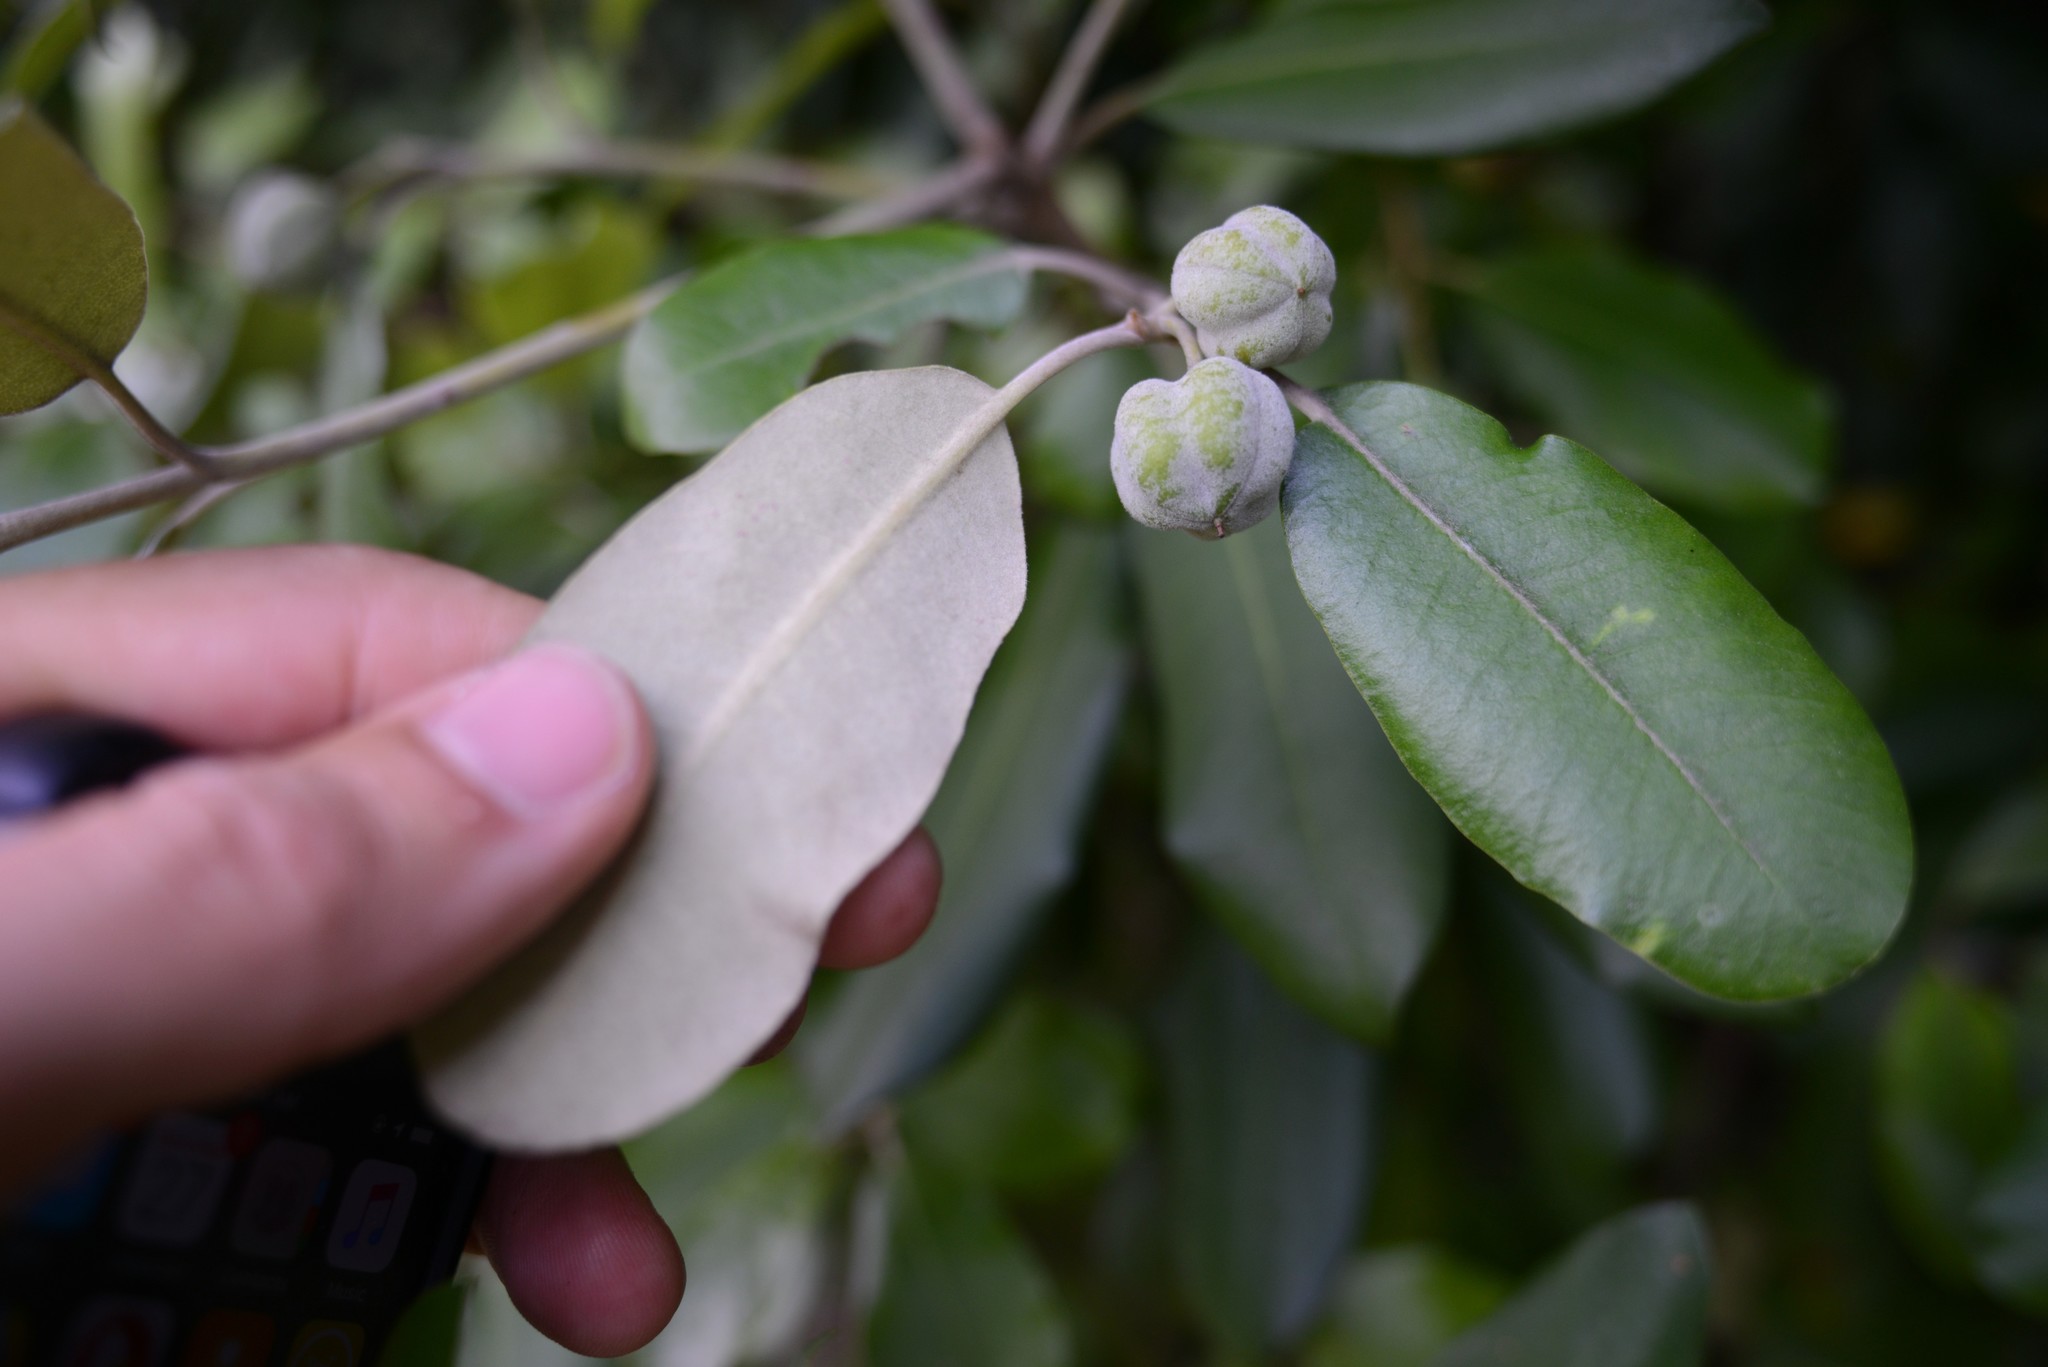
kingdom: Plantae
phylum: Tracheophyta
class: Magnoliopsida
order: Apiales
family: Pittosporaceae
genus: Pittosporum
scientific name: Pittosporum ralphii
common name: Ralph's desertwillow
